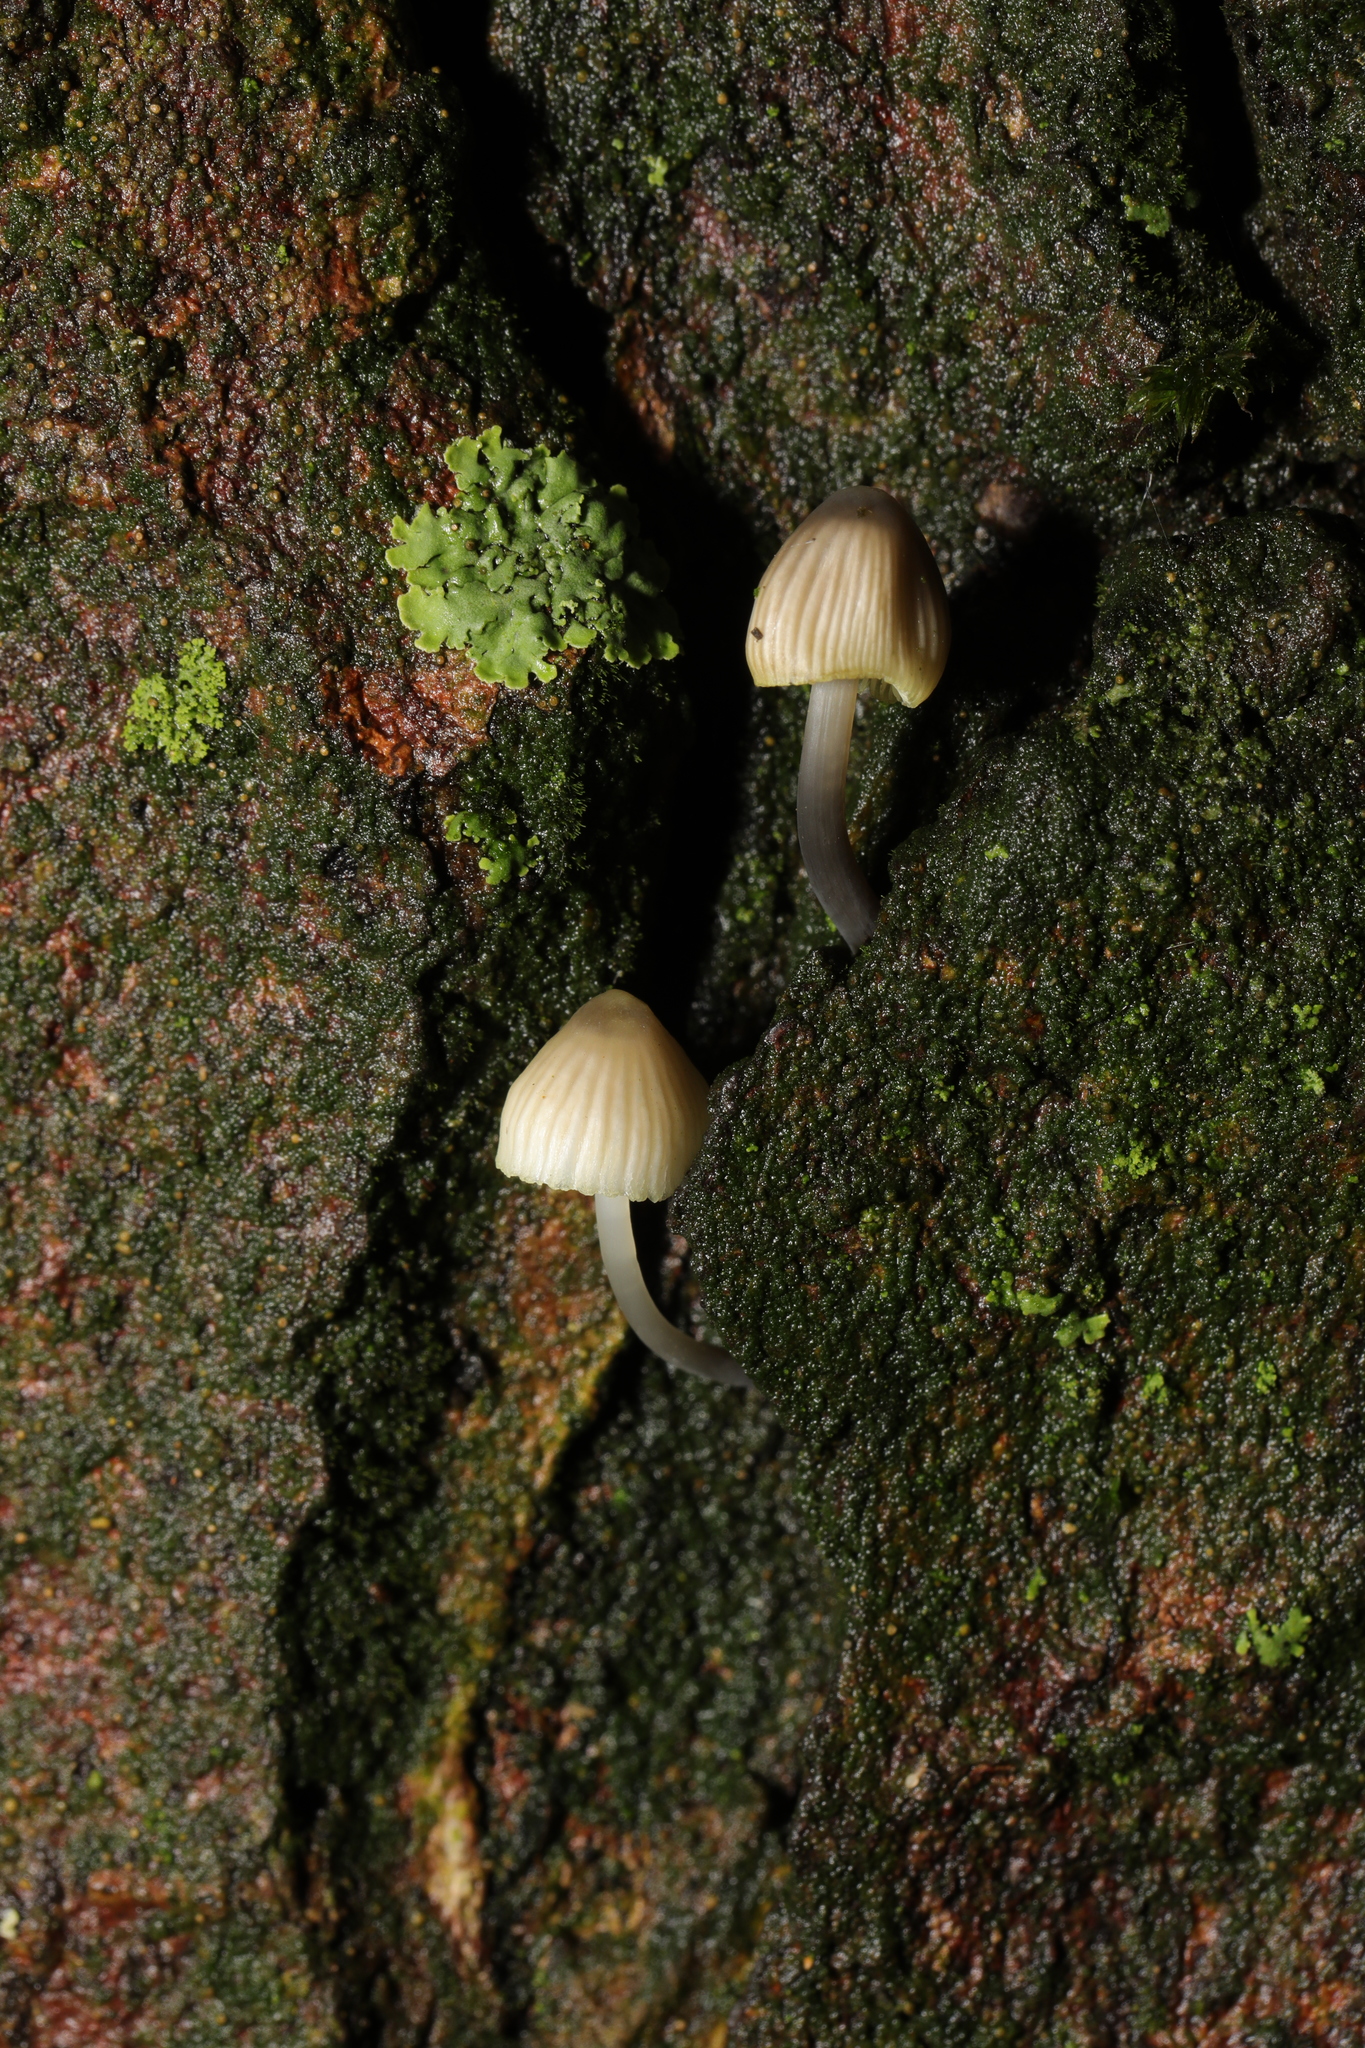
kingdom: Fungi
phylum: Basidiomycota
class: Agaricomycetes
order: Agaricales
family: Mycenaceae
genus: Mycena
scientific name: Mycena
